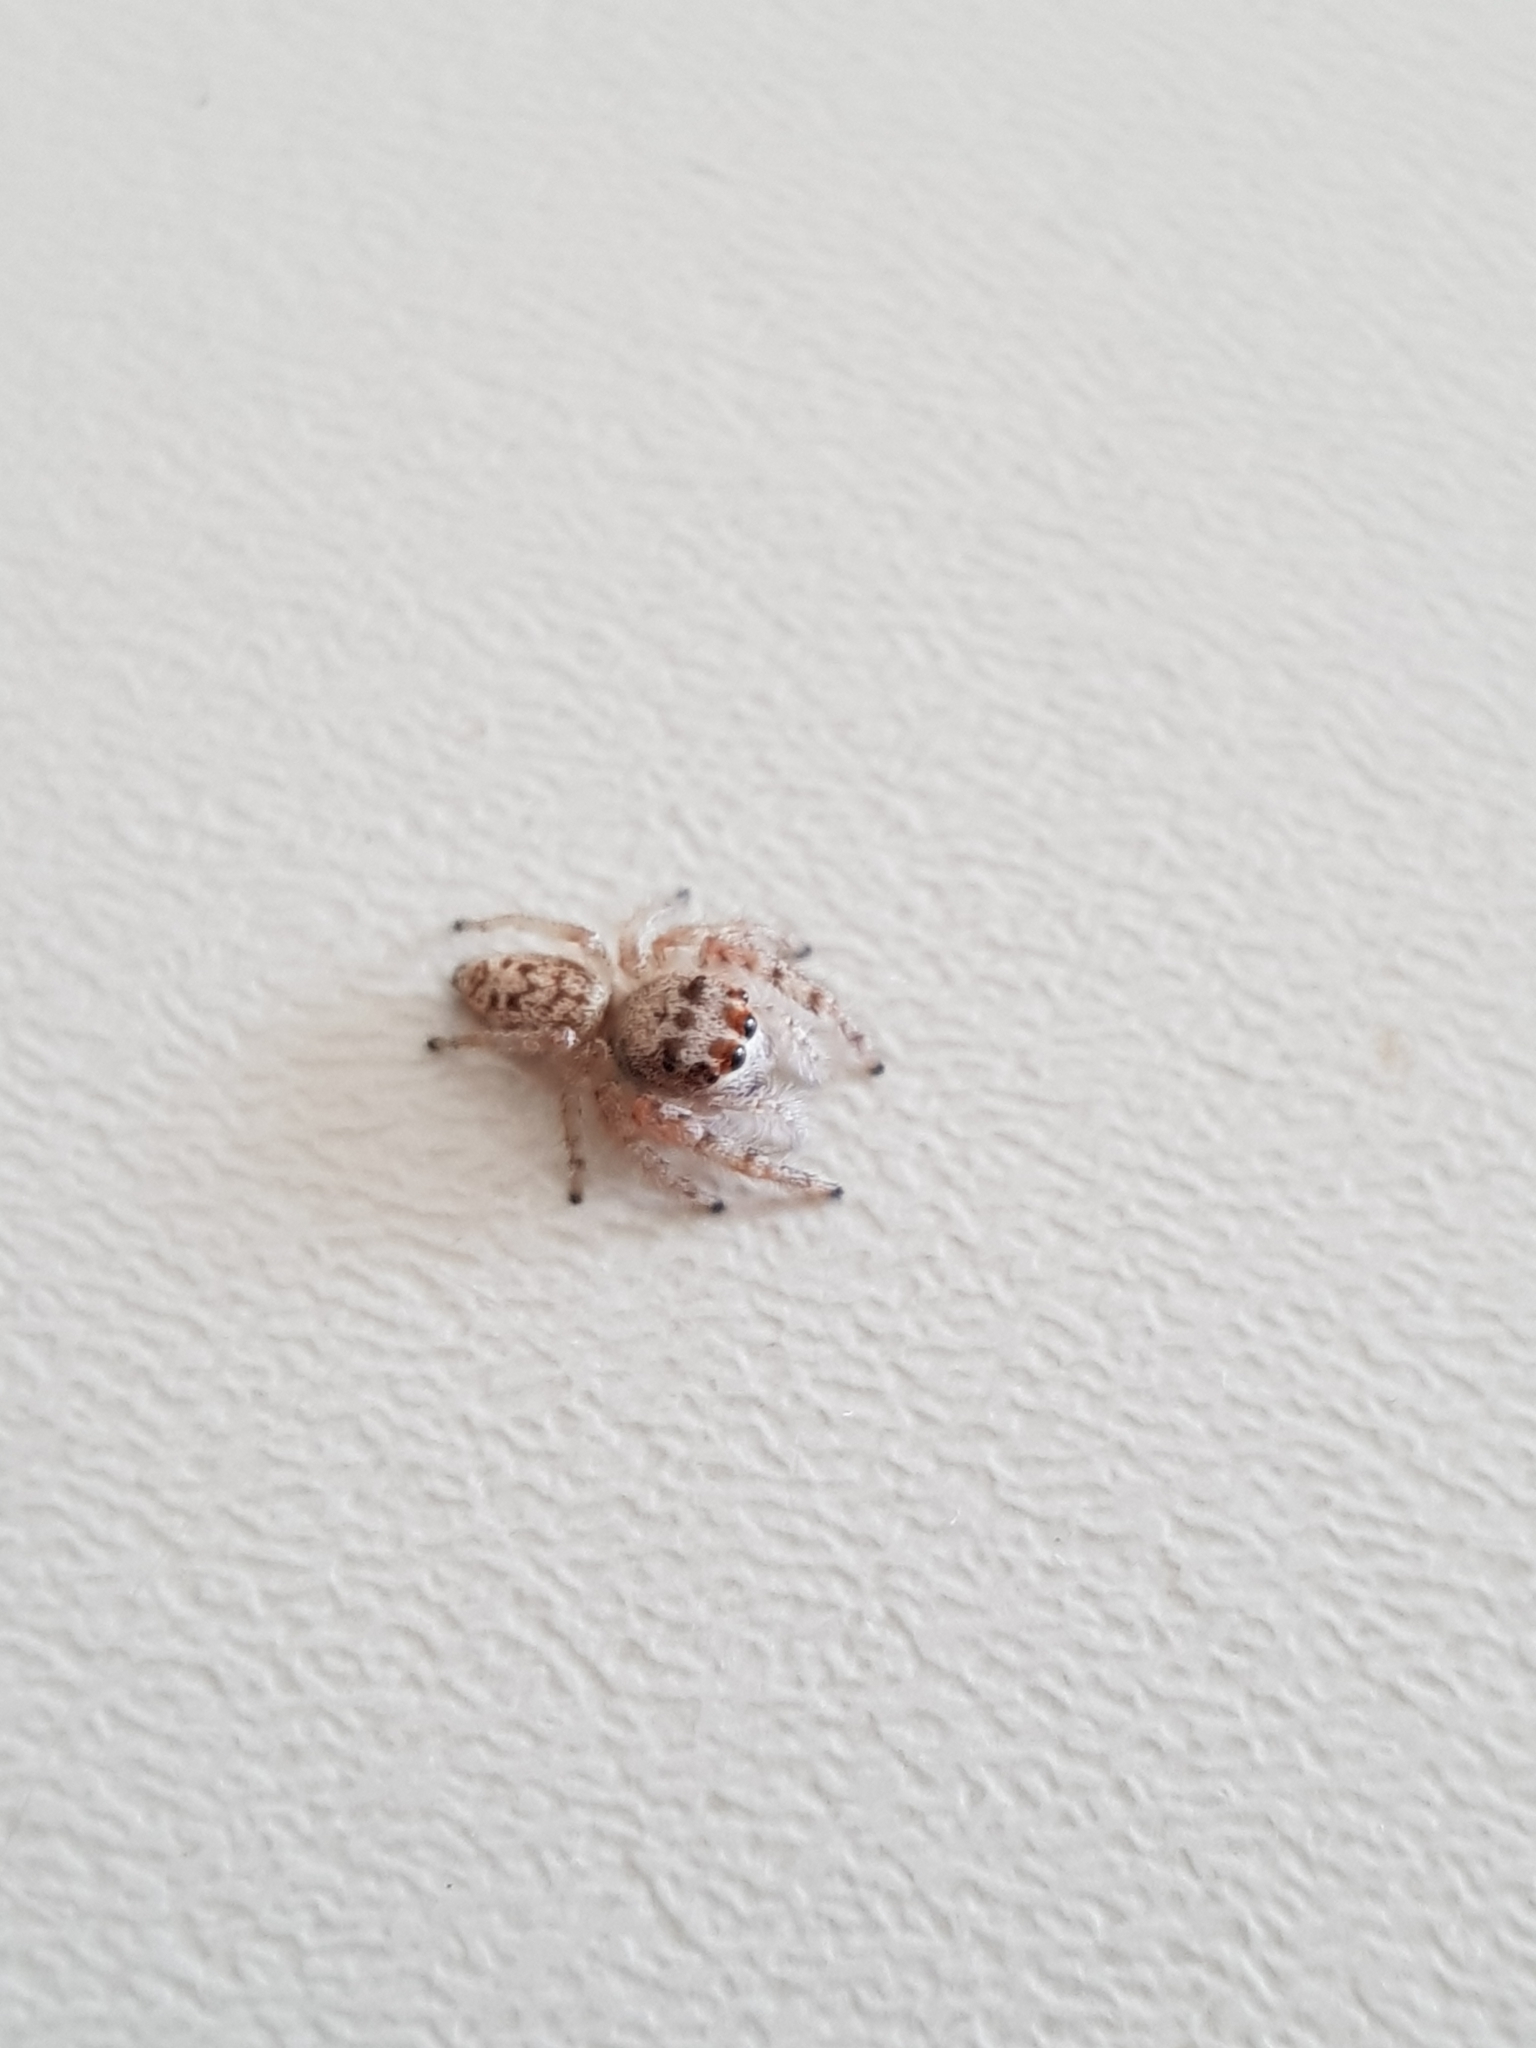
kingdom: Animalia
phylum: Arthropoda
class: Arachnida
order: Araneae
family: Salticidae
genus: Opisthoncus
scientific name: Opisthoncus polyphemus
